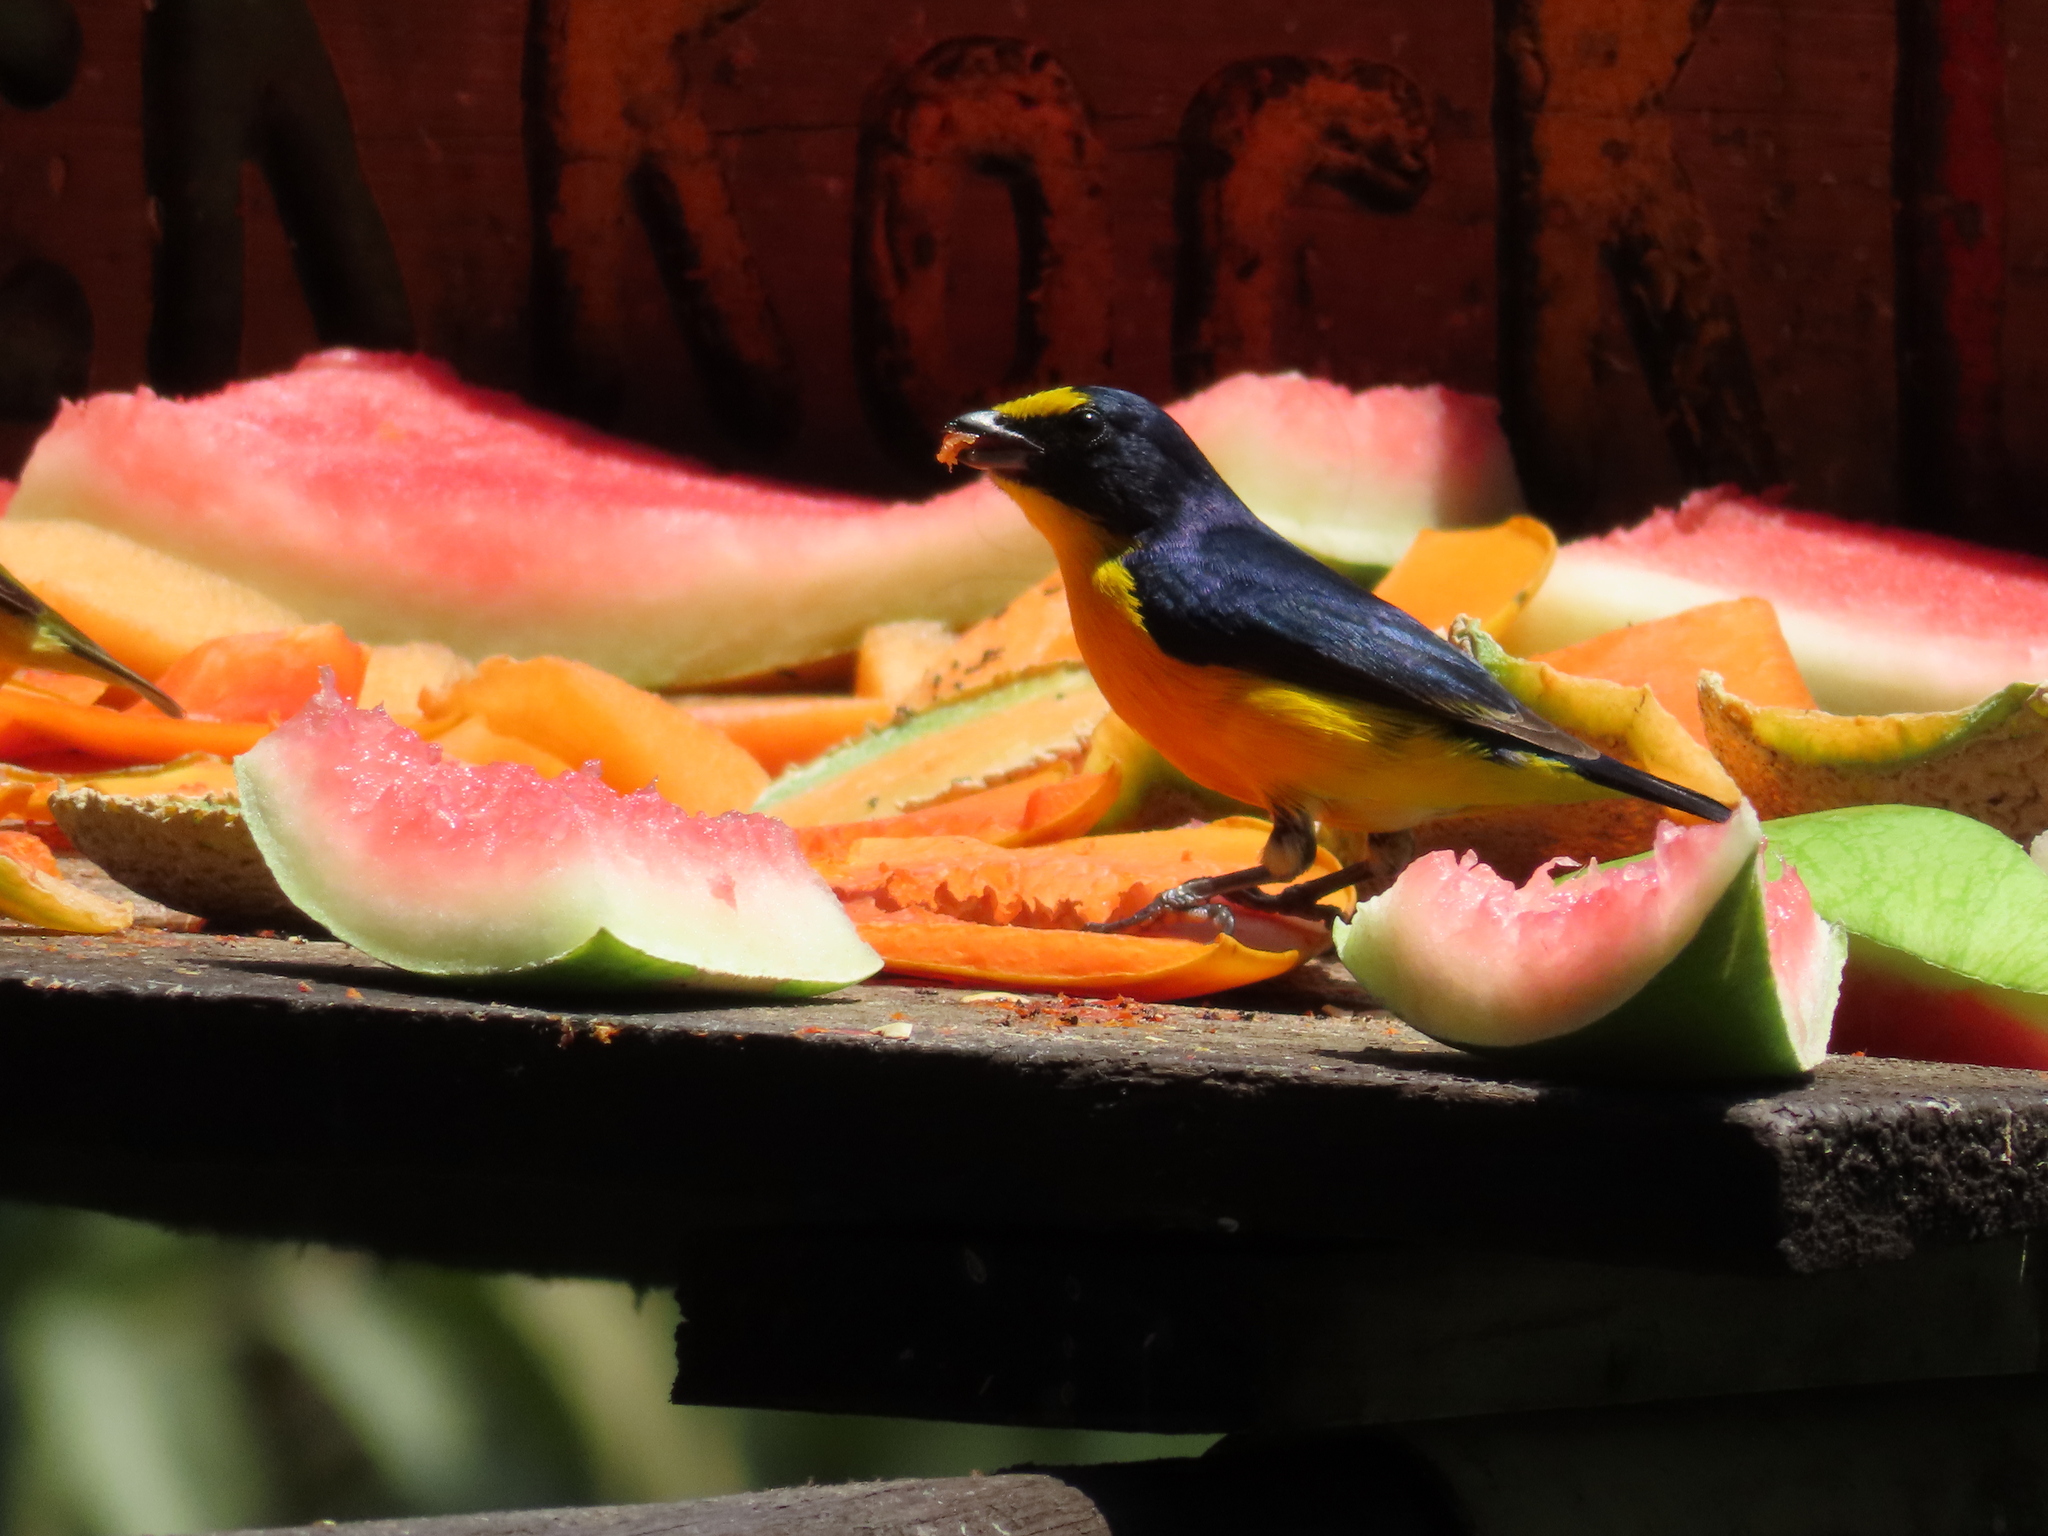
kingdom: Animalia
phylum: Chordata
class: Aves
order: Passeriformes
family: Fringillidae
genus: Euphonia
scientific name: Euphonia hirundinacea
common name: Yellow-throated euphonia
